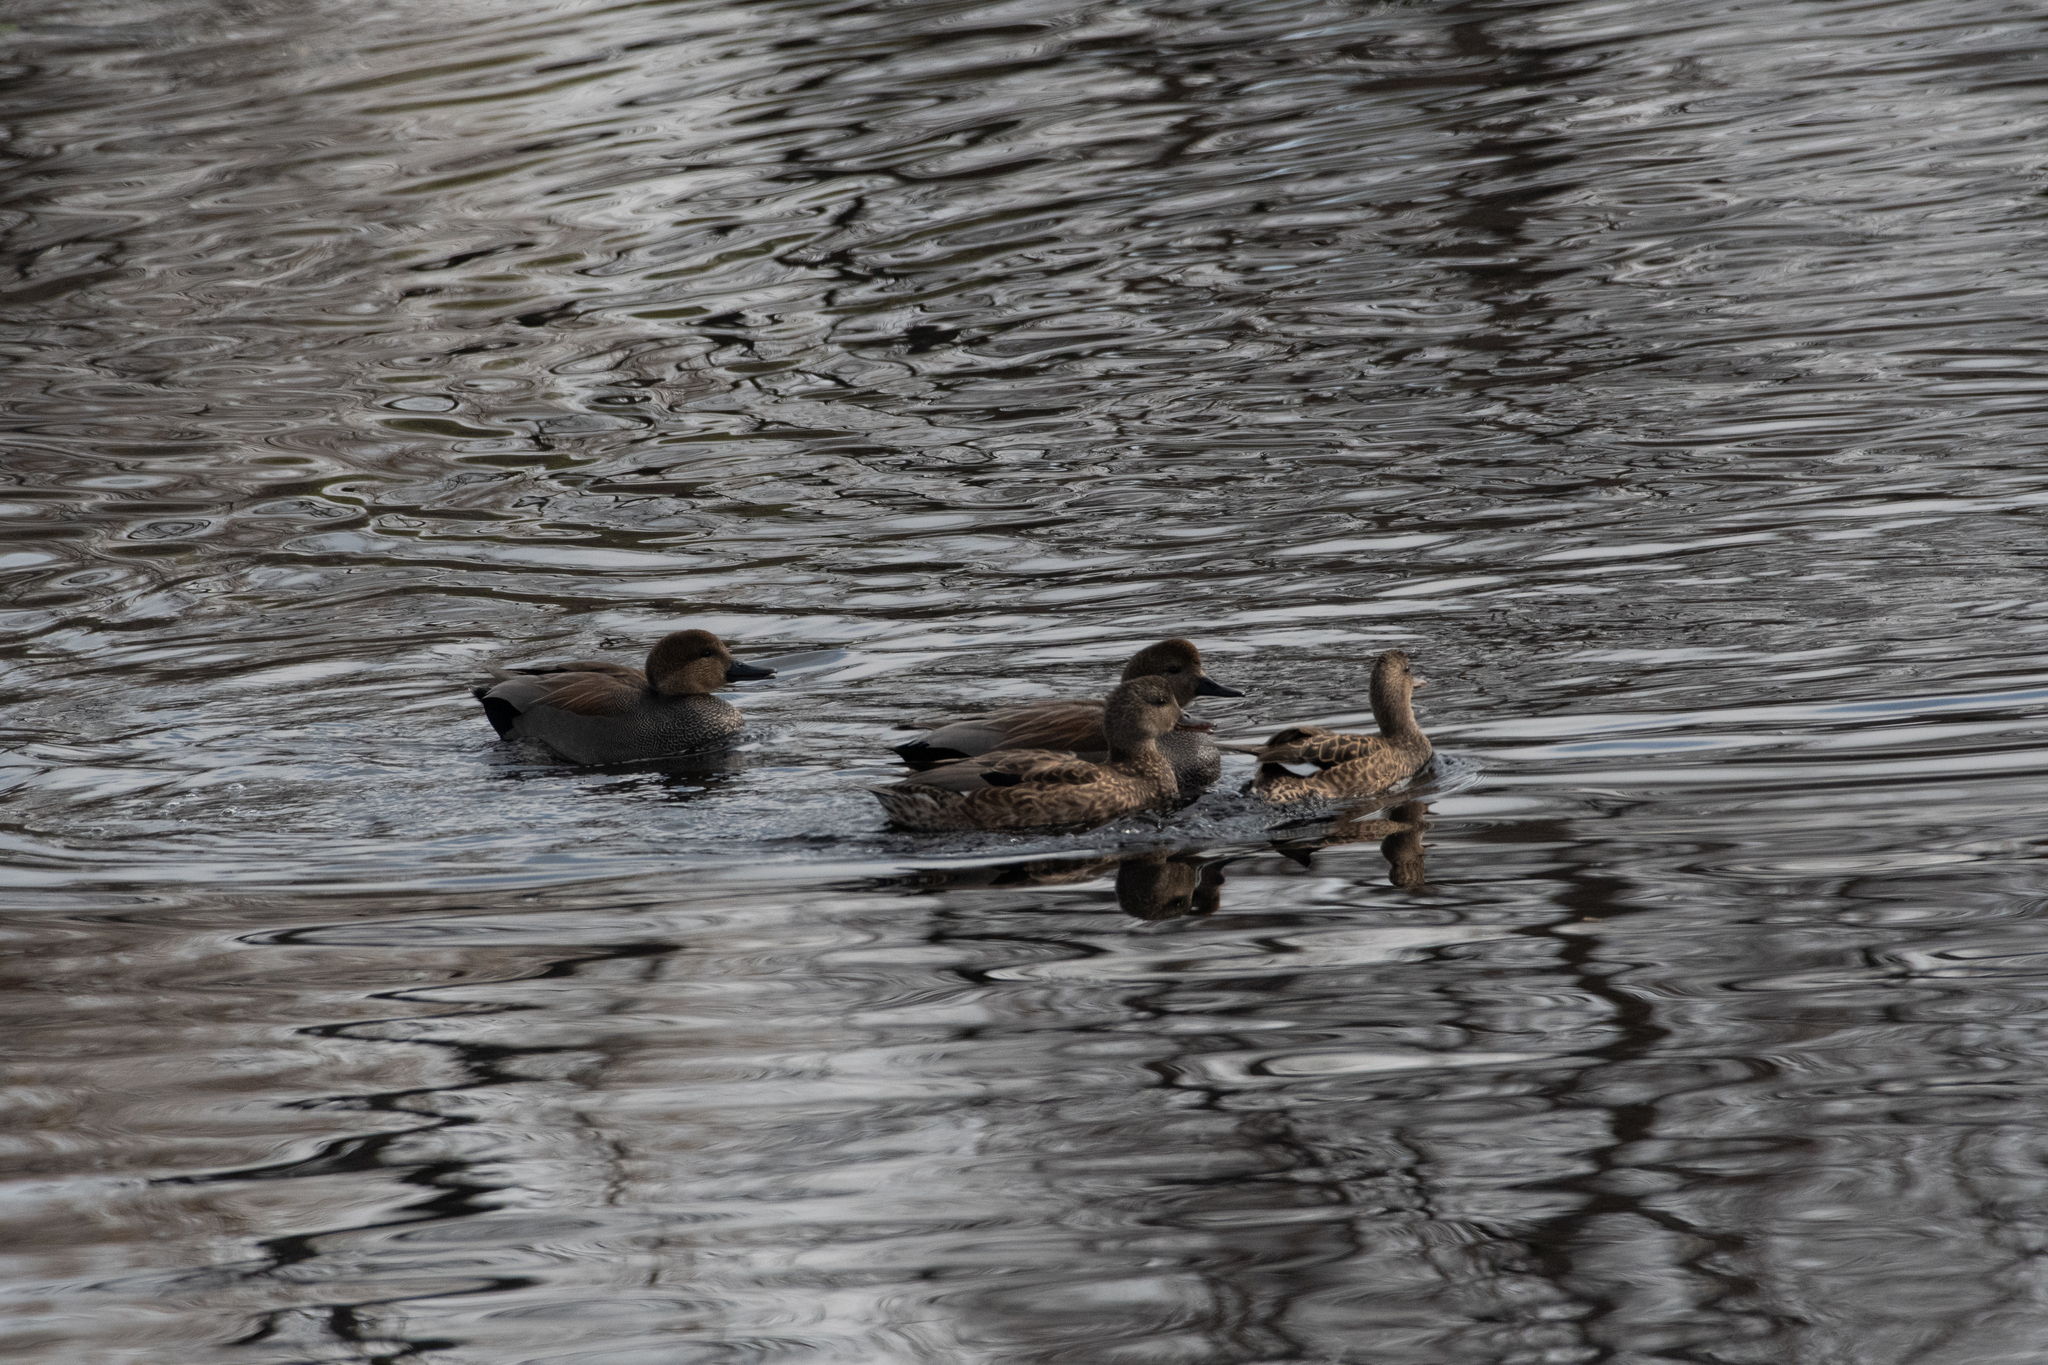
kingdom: Animalia
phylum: Chordata
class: Aves
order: Anseriformes
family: Anatidae
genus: Mareca
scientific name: Mareca strepera
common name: Gadwall
